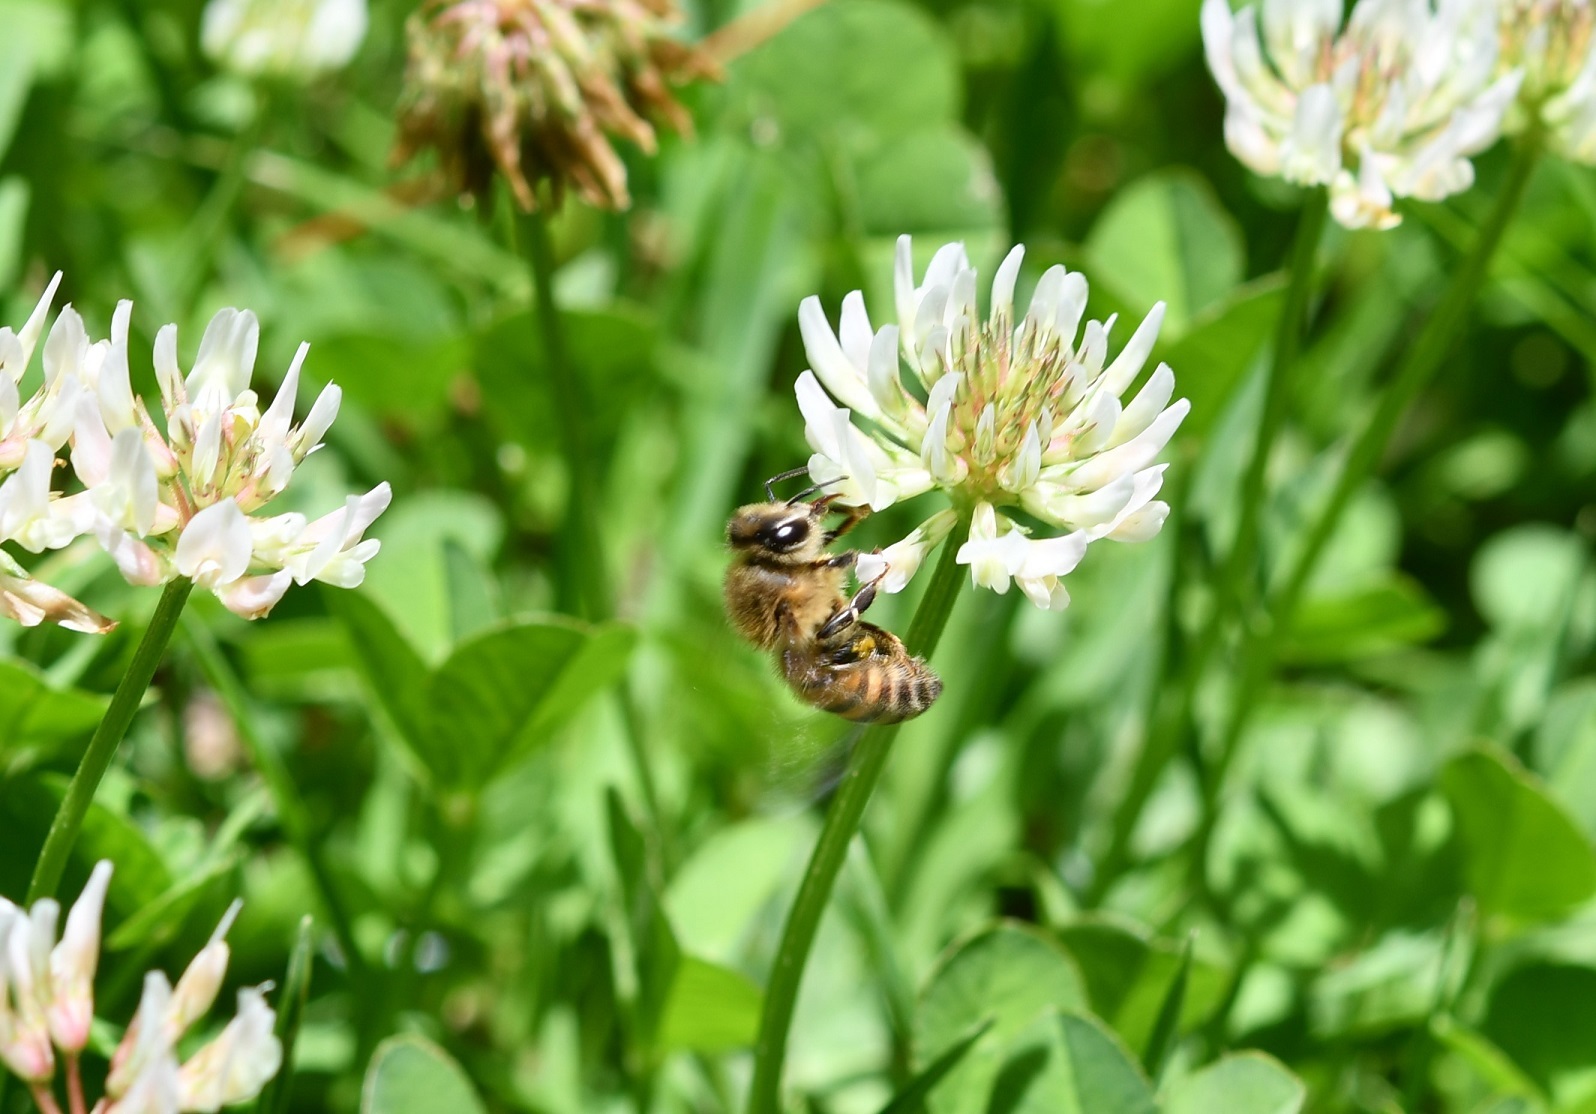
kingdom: Animalia
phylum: Arthropoda
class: Insecta
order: Hymenoptera
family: Apidae
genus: Apis
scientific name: Apis mellifera
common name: Honey bee
